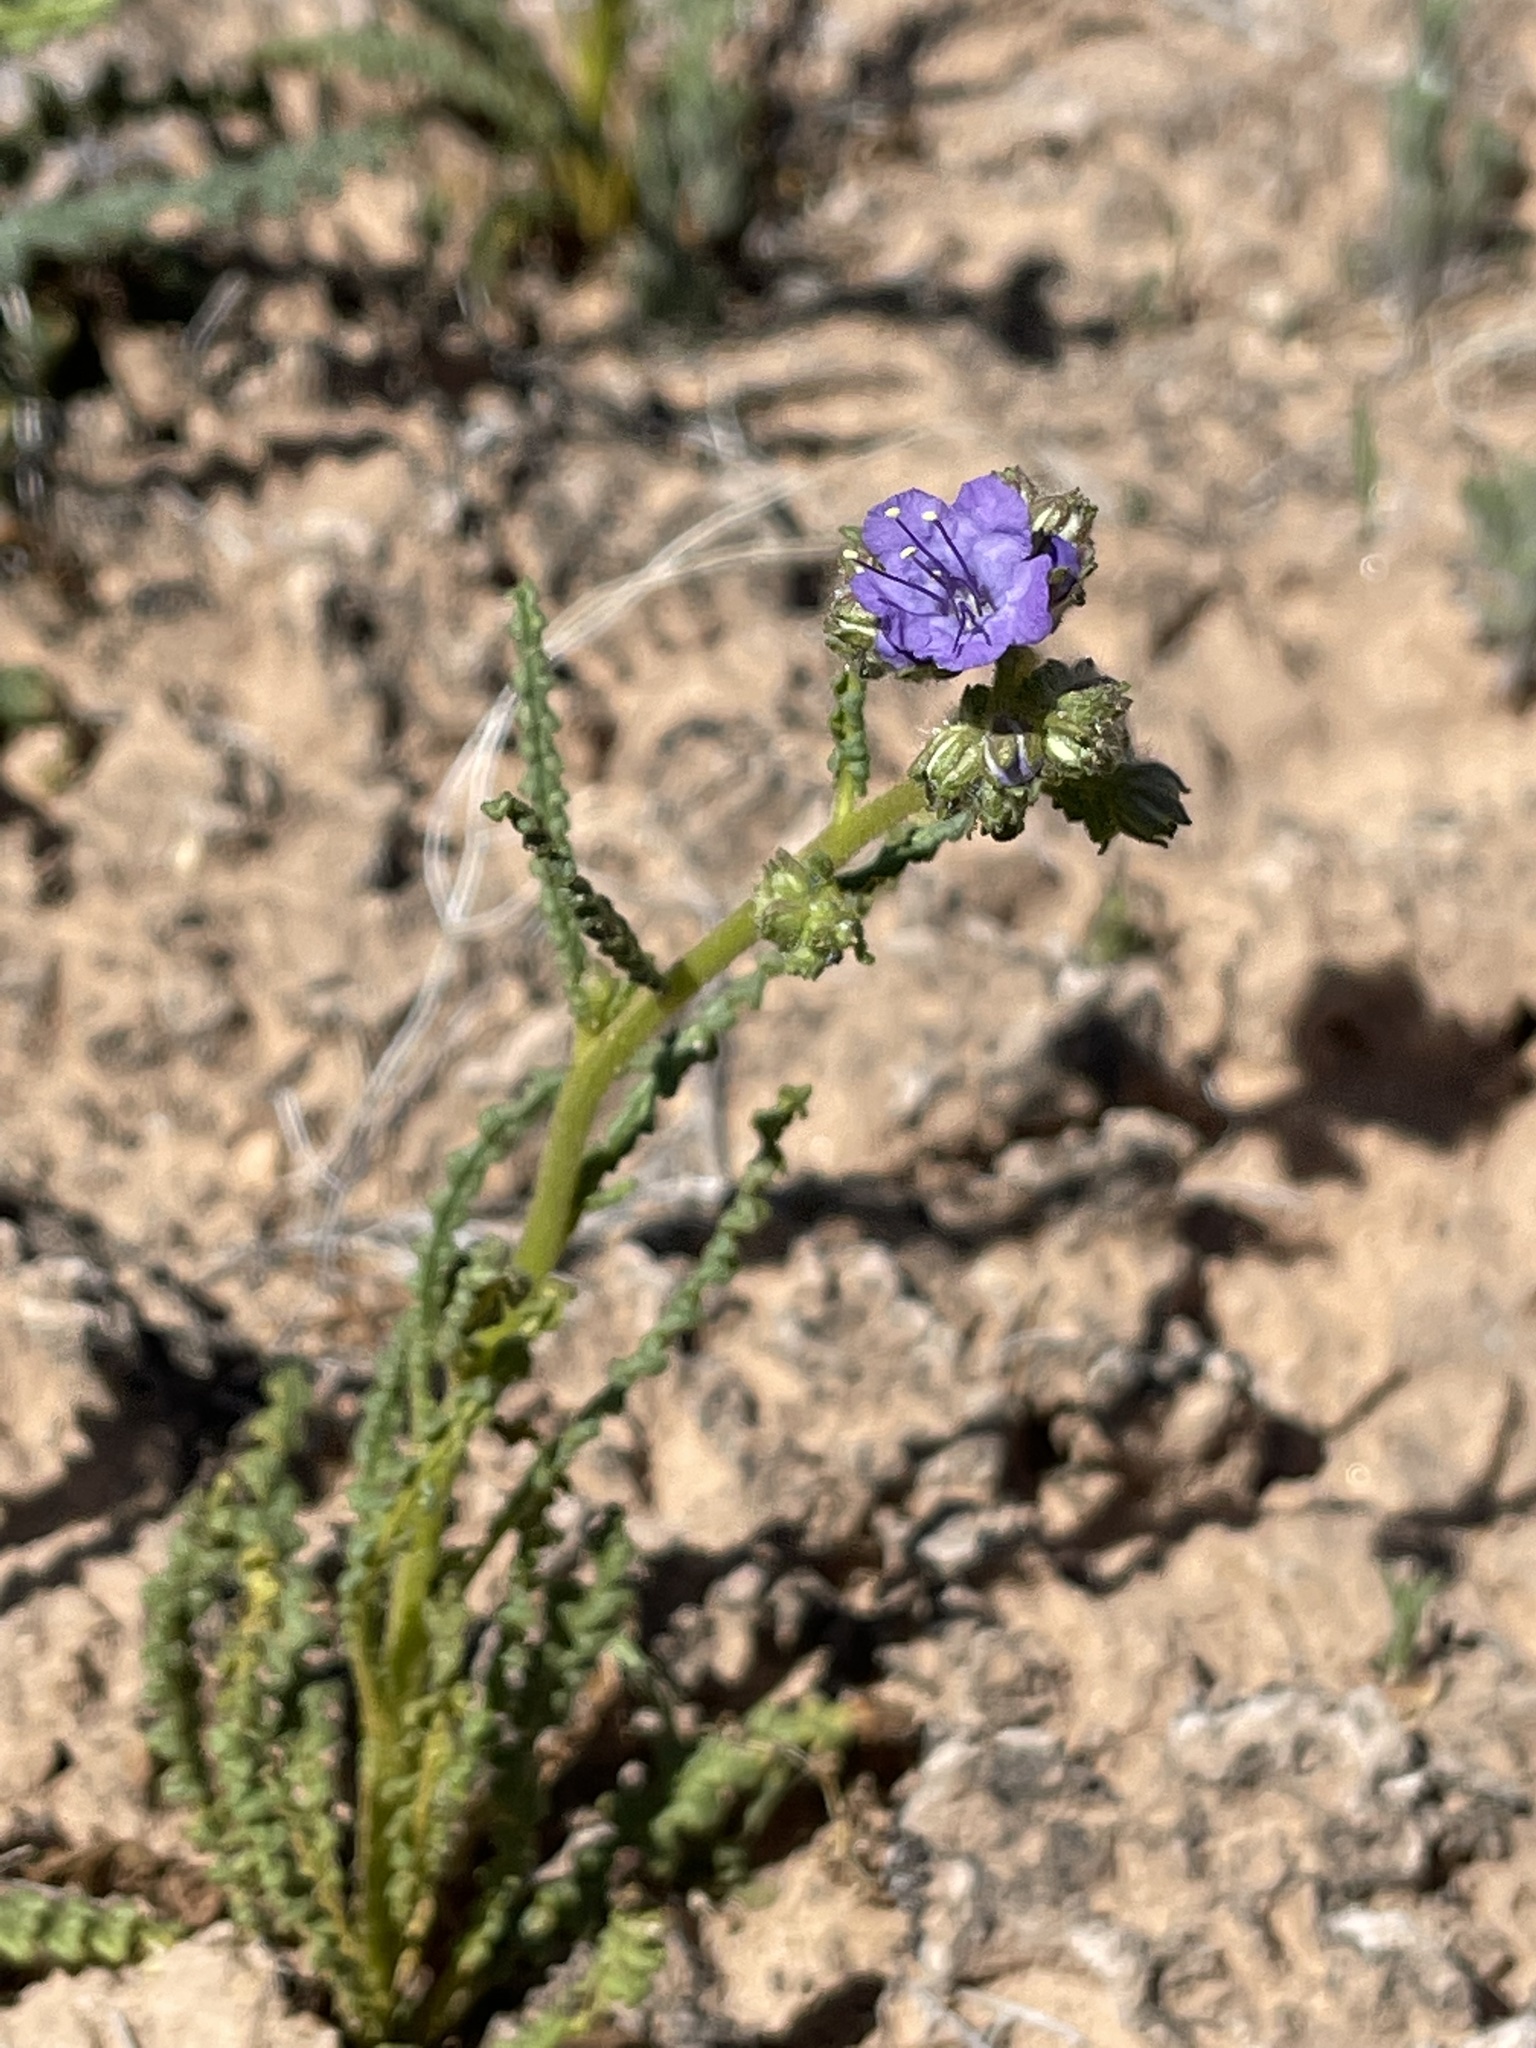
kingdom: Plantae
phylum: Tracheophyta
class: Magnoliopsida
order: Boraginales
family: Hydrophyllaceae
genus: Phacelia
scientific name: Phacelia crenulata
